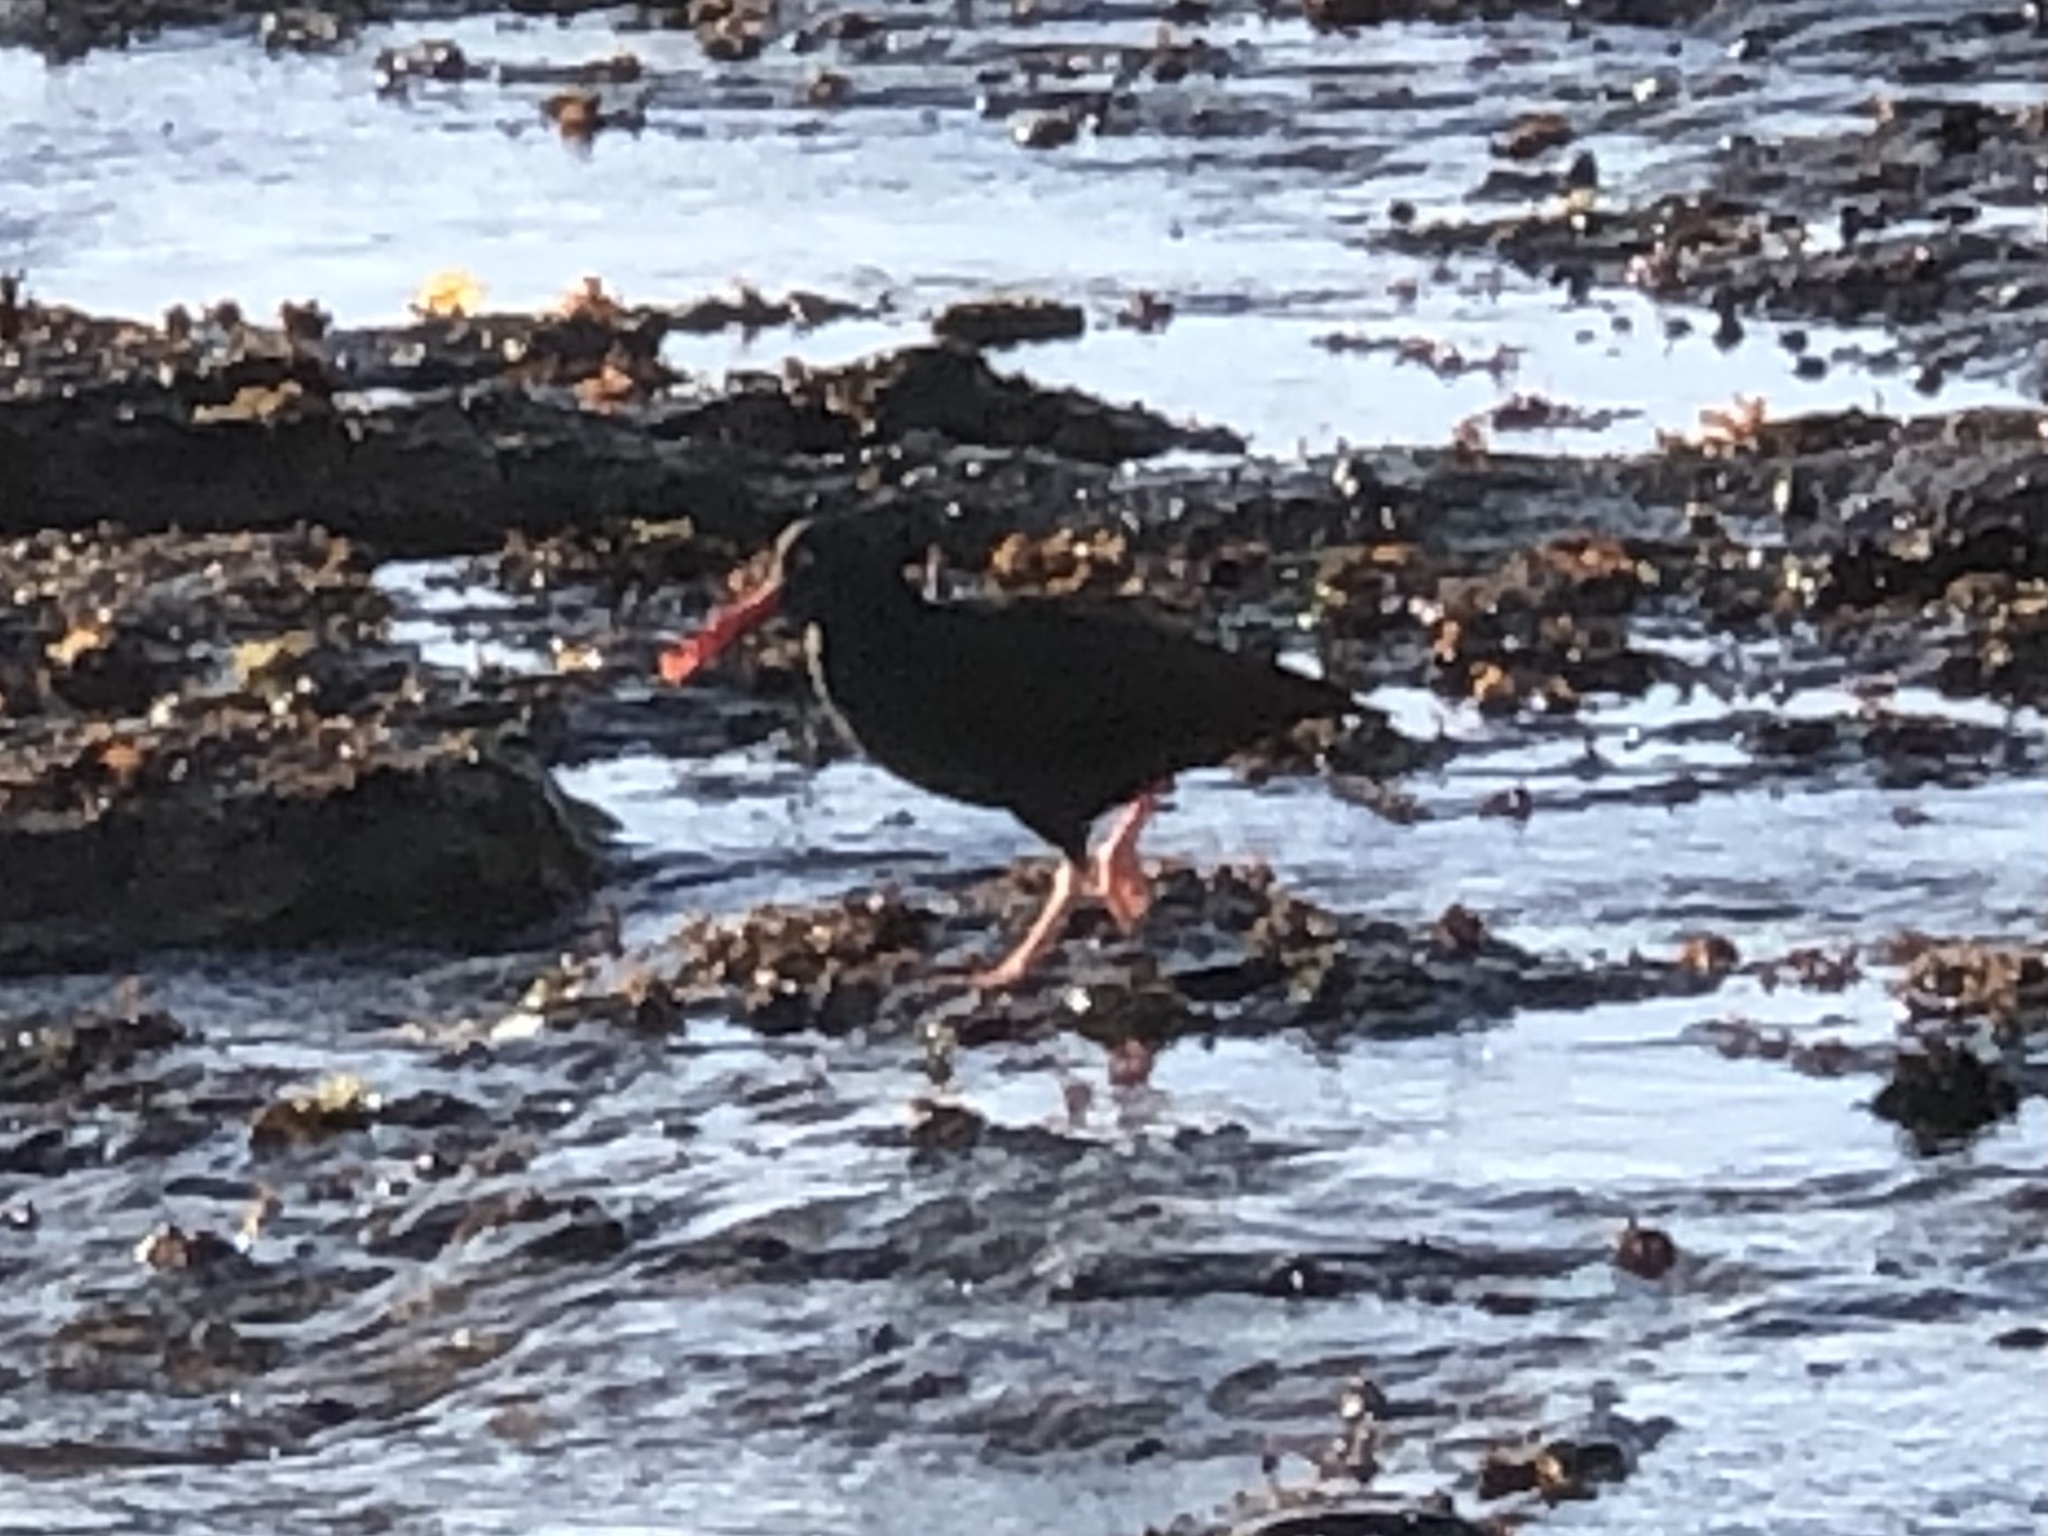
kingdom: Animalia
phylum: Chordata
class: Aves
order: Charadriiformes
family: Haematopodidae
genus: Haematopus
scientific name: Haematopus bachmani
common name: Black oystercatcher
